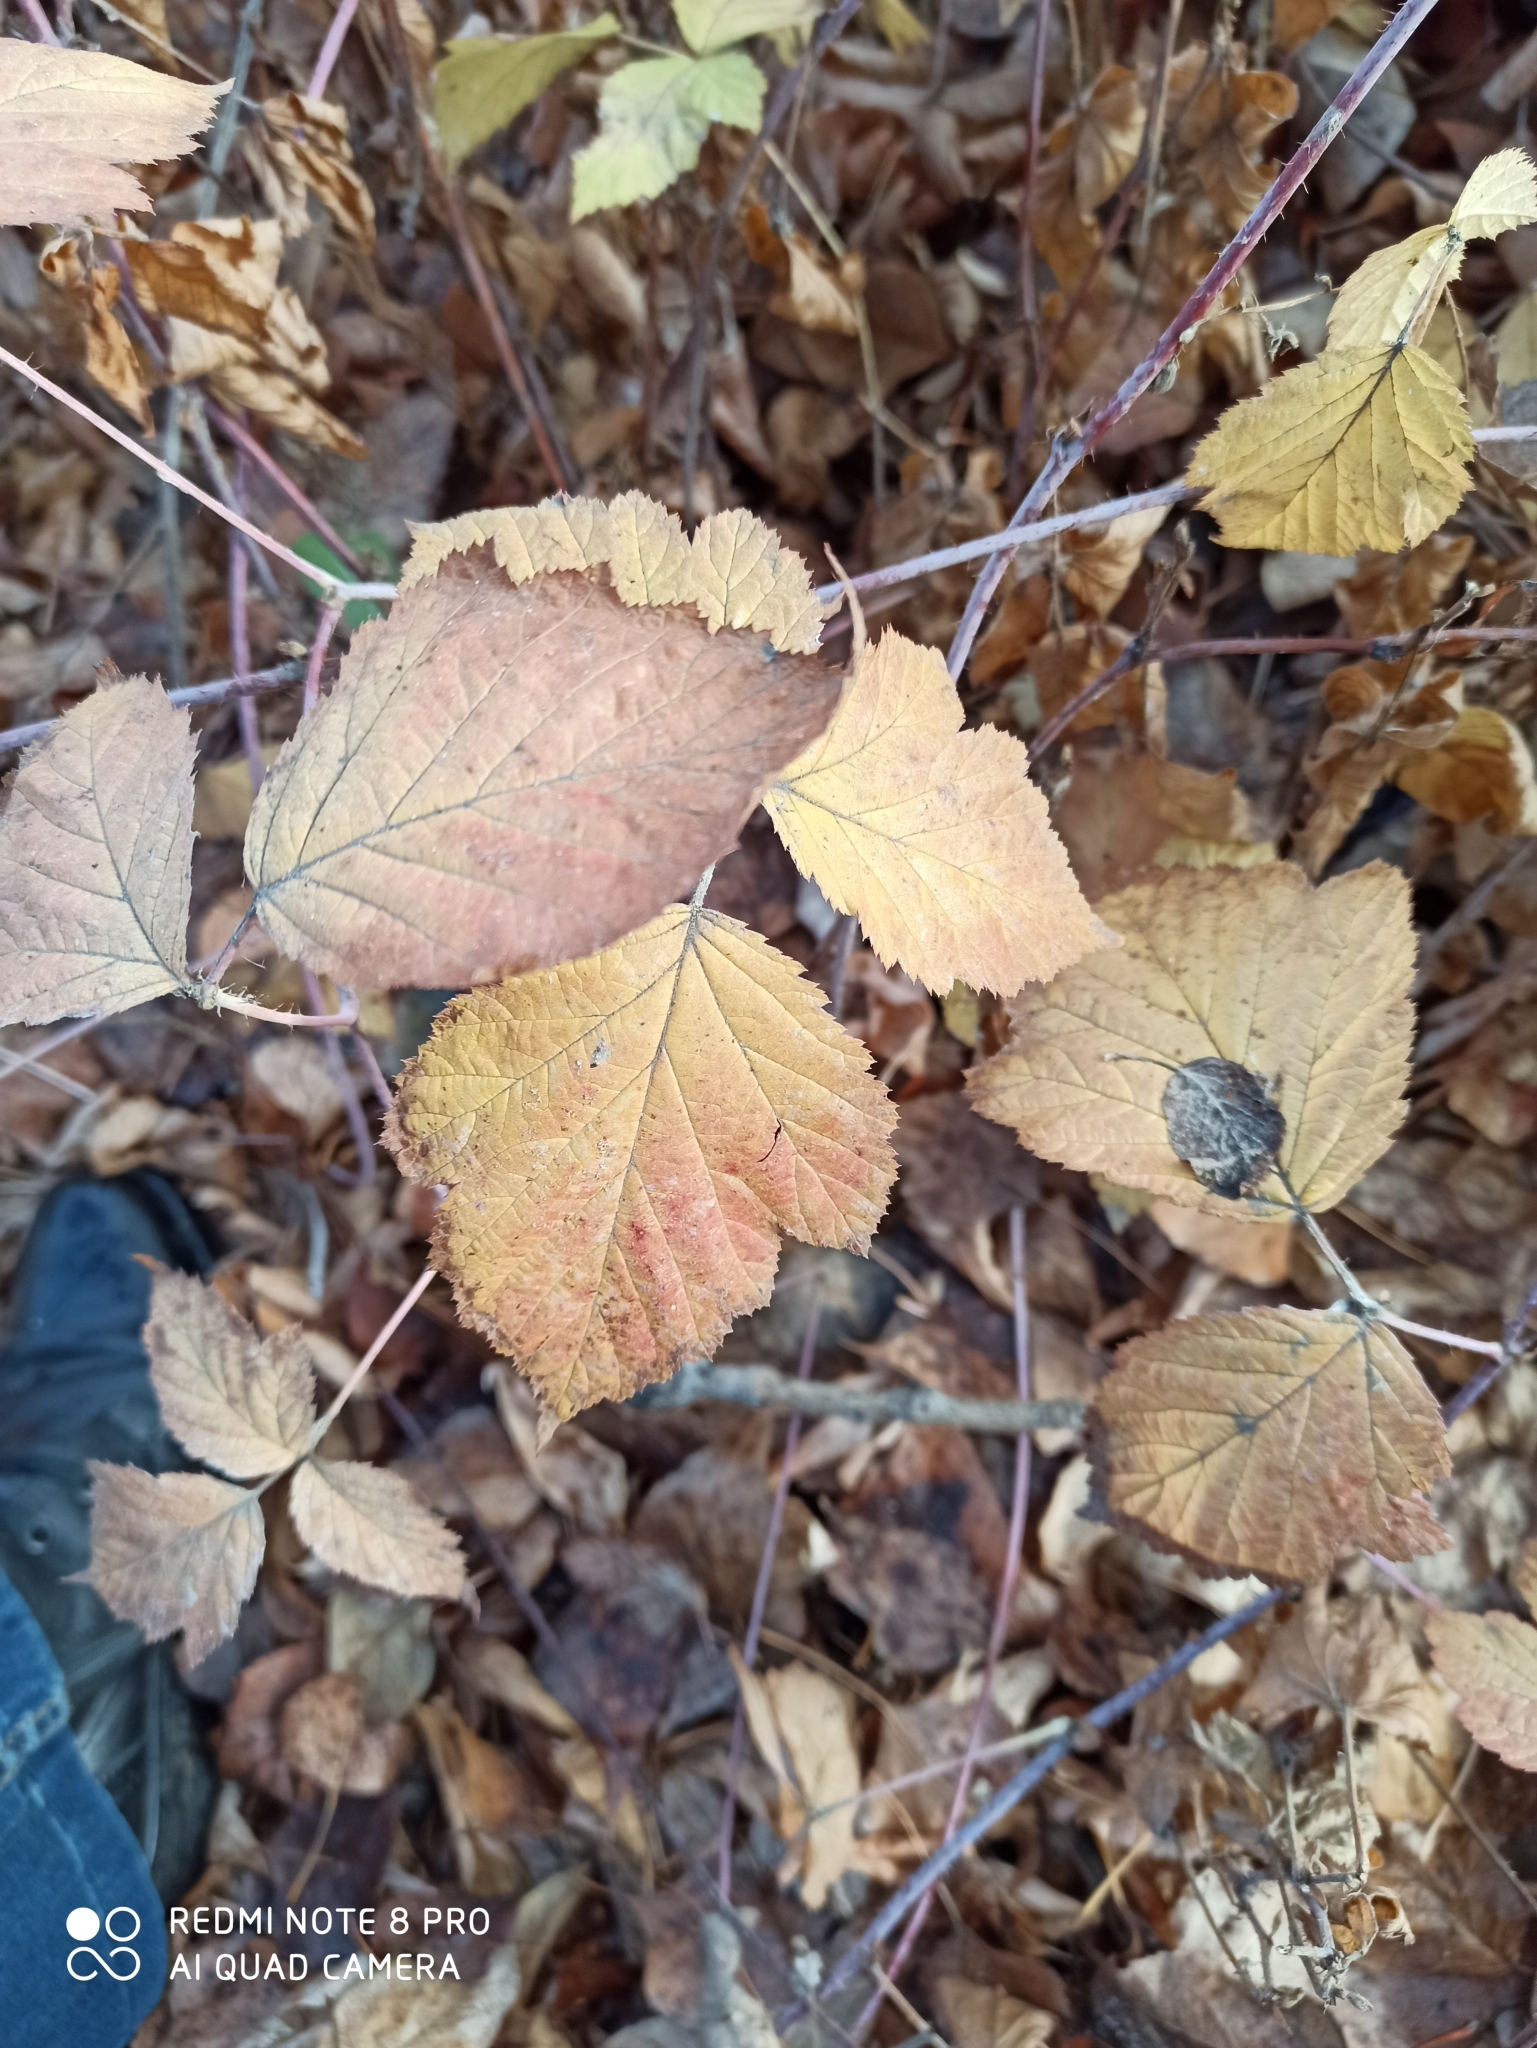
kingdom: Plantae
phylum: Tracheophyta
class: Magnoliopsida
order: Rosales
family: Rosaceae
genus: Rubus
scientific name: Rubus caesius
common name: Dewberry
